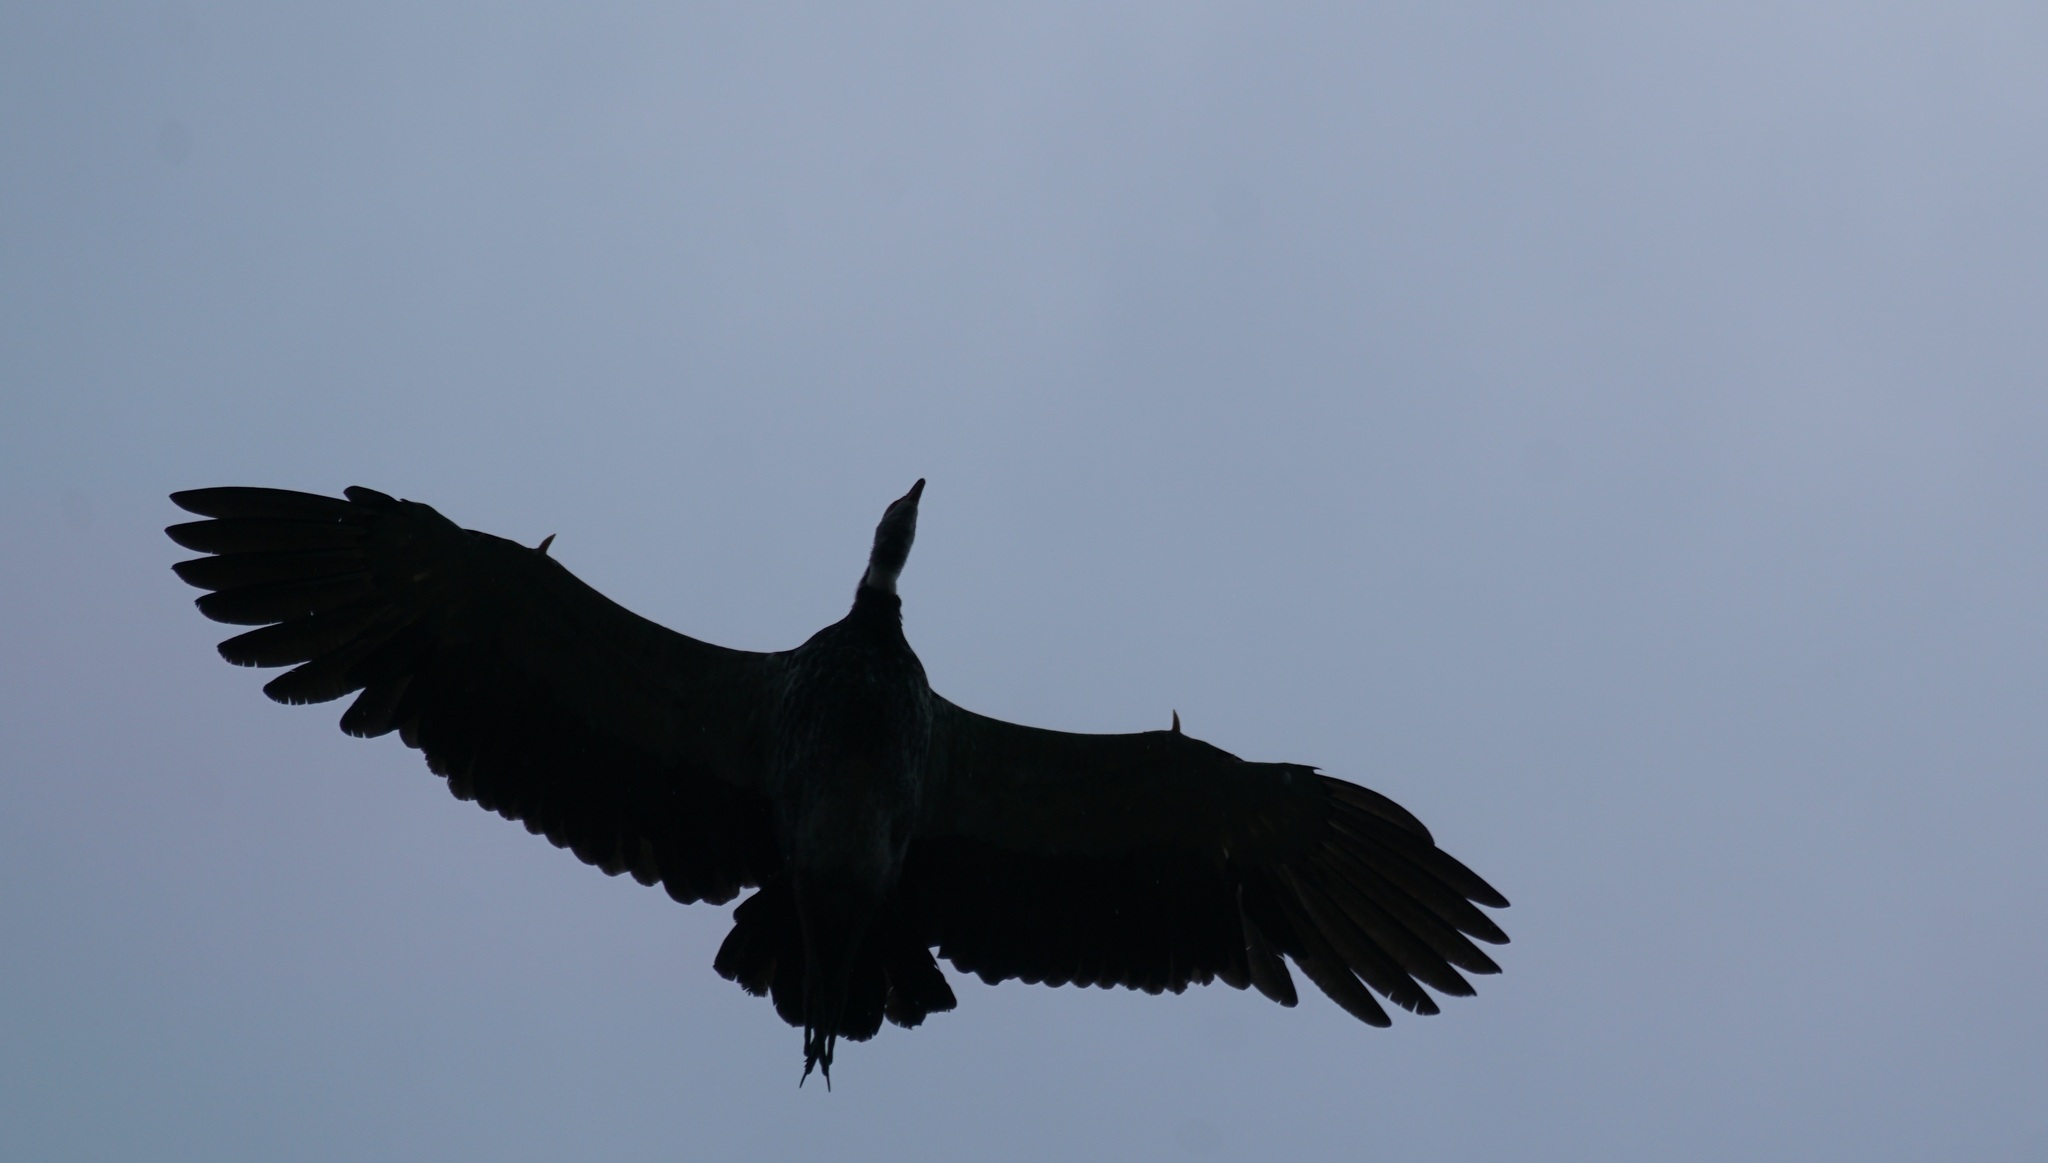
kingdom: Animalia
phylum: Chordata
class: Aves
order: Anseriformes
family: Anhimidae
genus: Chauna
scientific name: Chauna torquata
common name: Southern screamer
